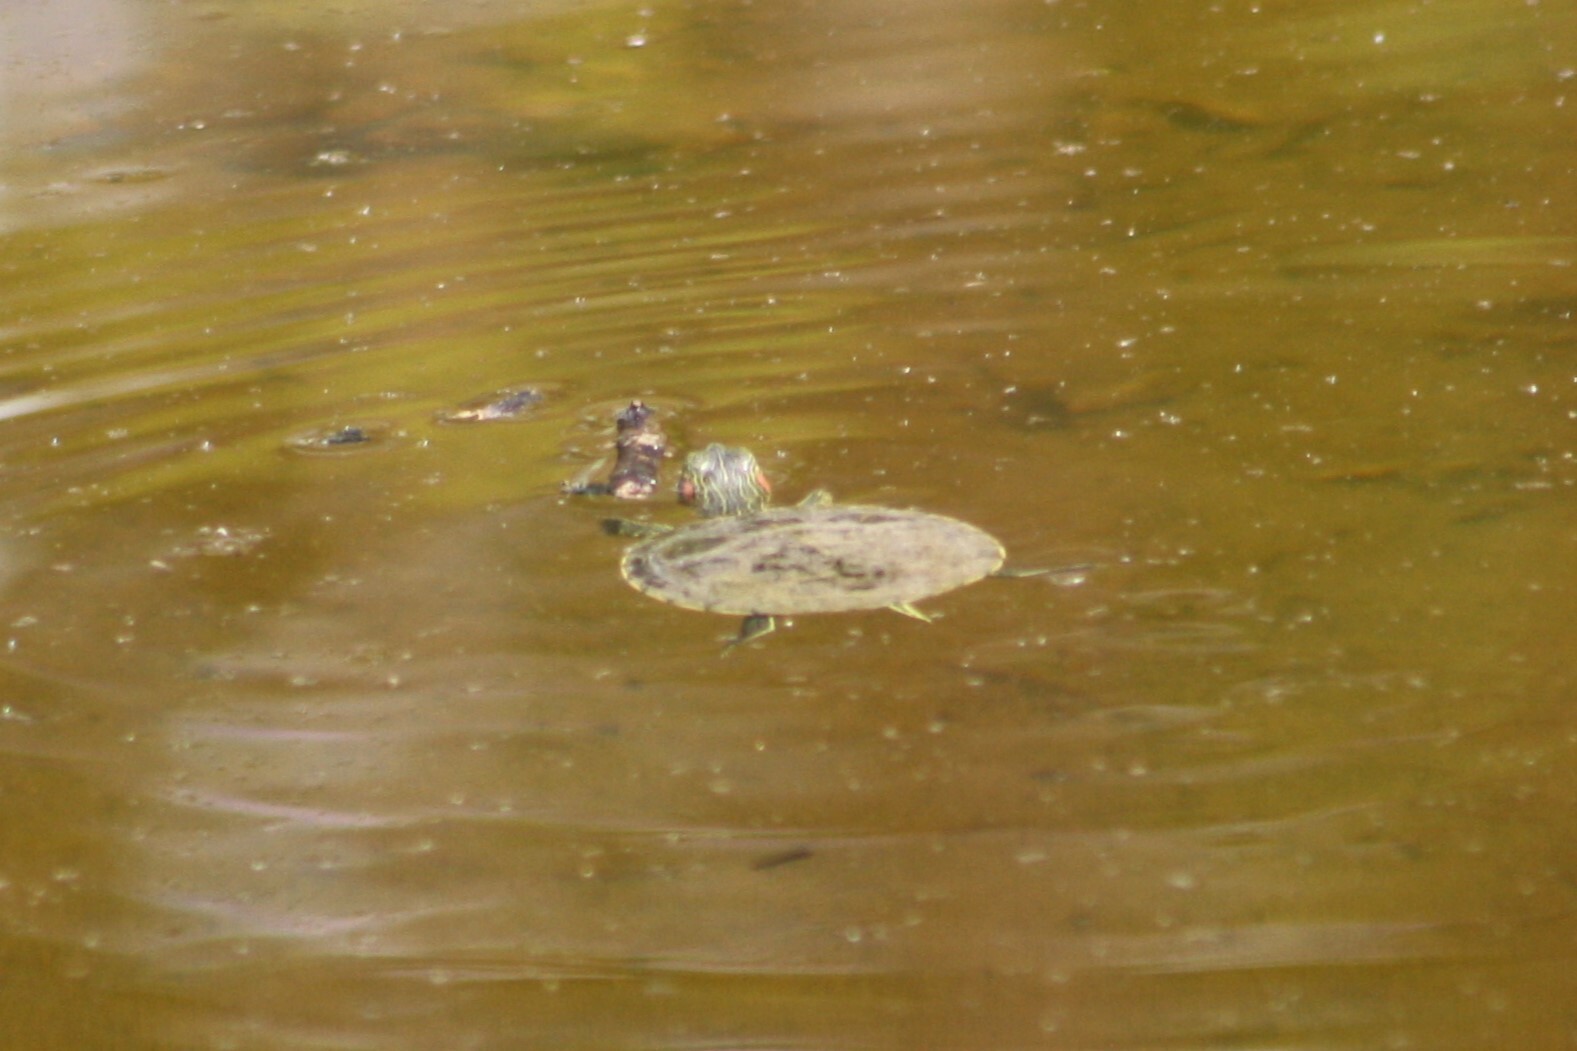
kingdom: Animalia
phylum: Chordata
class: Testudines
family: Emydidae
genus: Trachemys
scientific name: Trachemys scripta
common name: Slider
